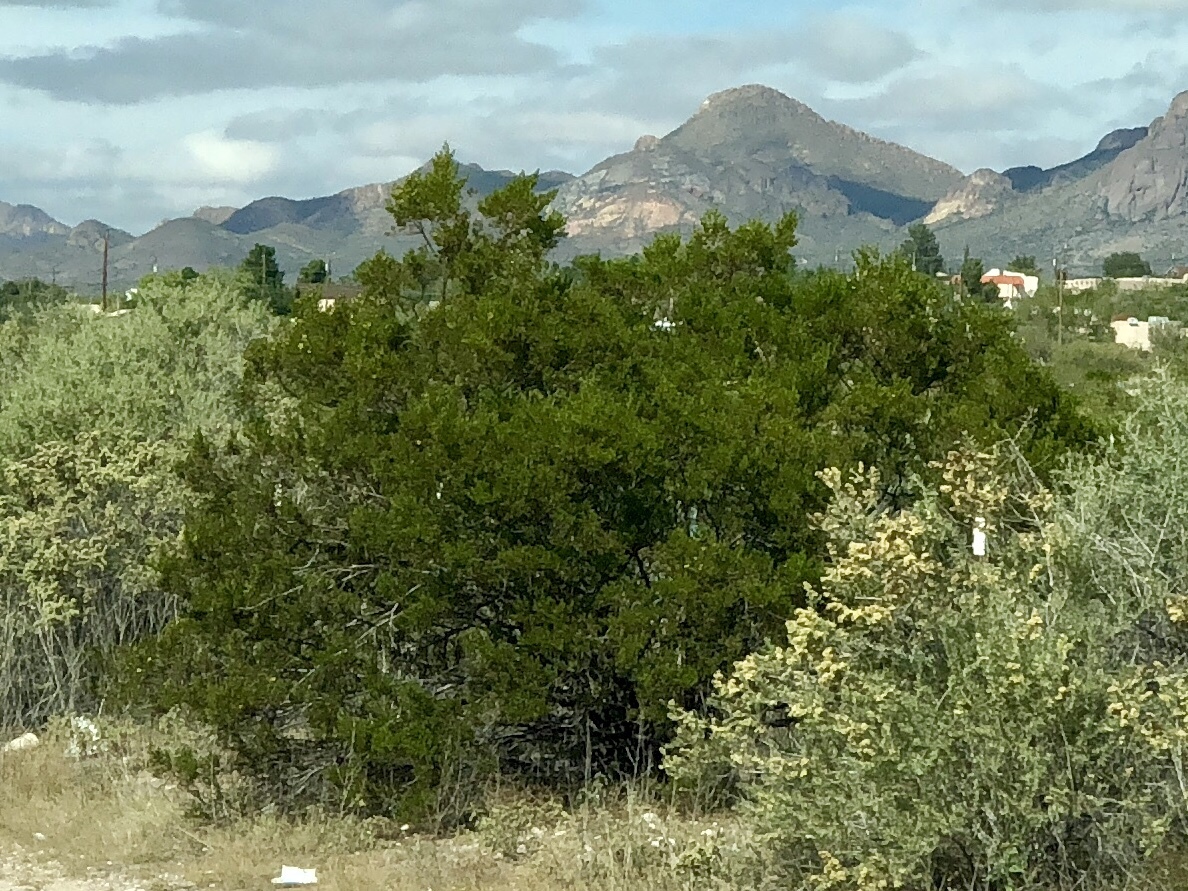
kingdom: Plantae
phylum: Tracheophyta
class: Magnoliopsida
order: Zygophyllales
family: Zygophyllaceae
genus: Larrea
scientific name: Larrea tridentata
